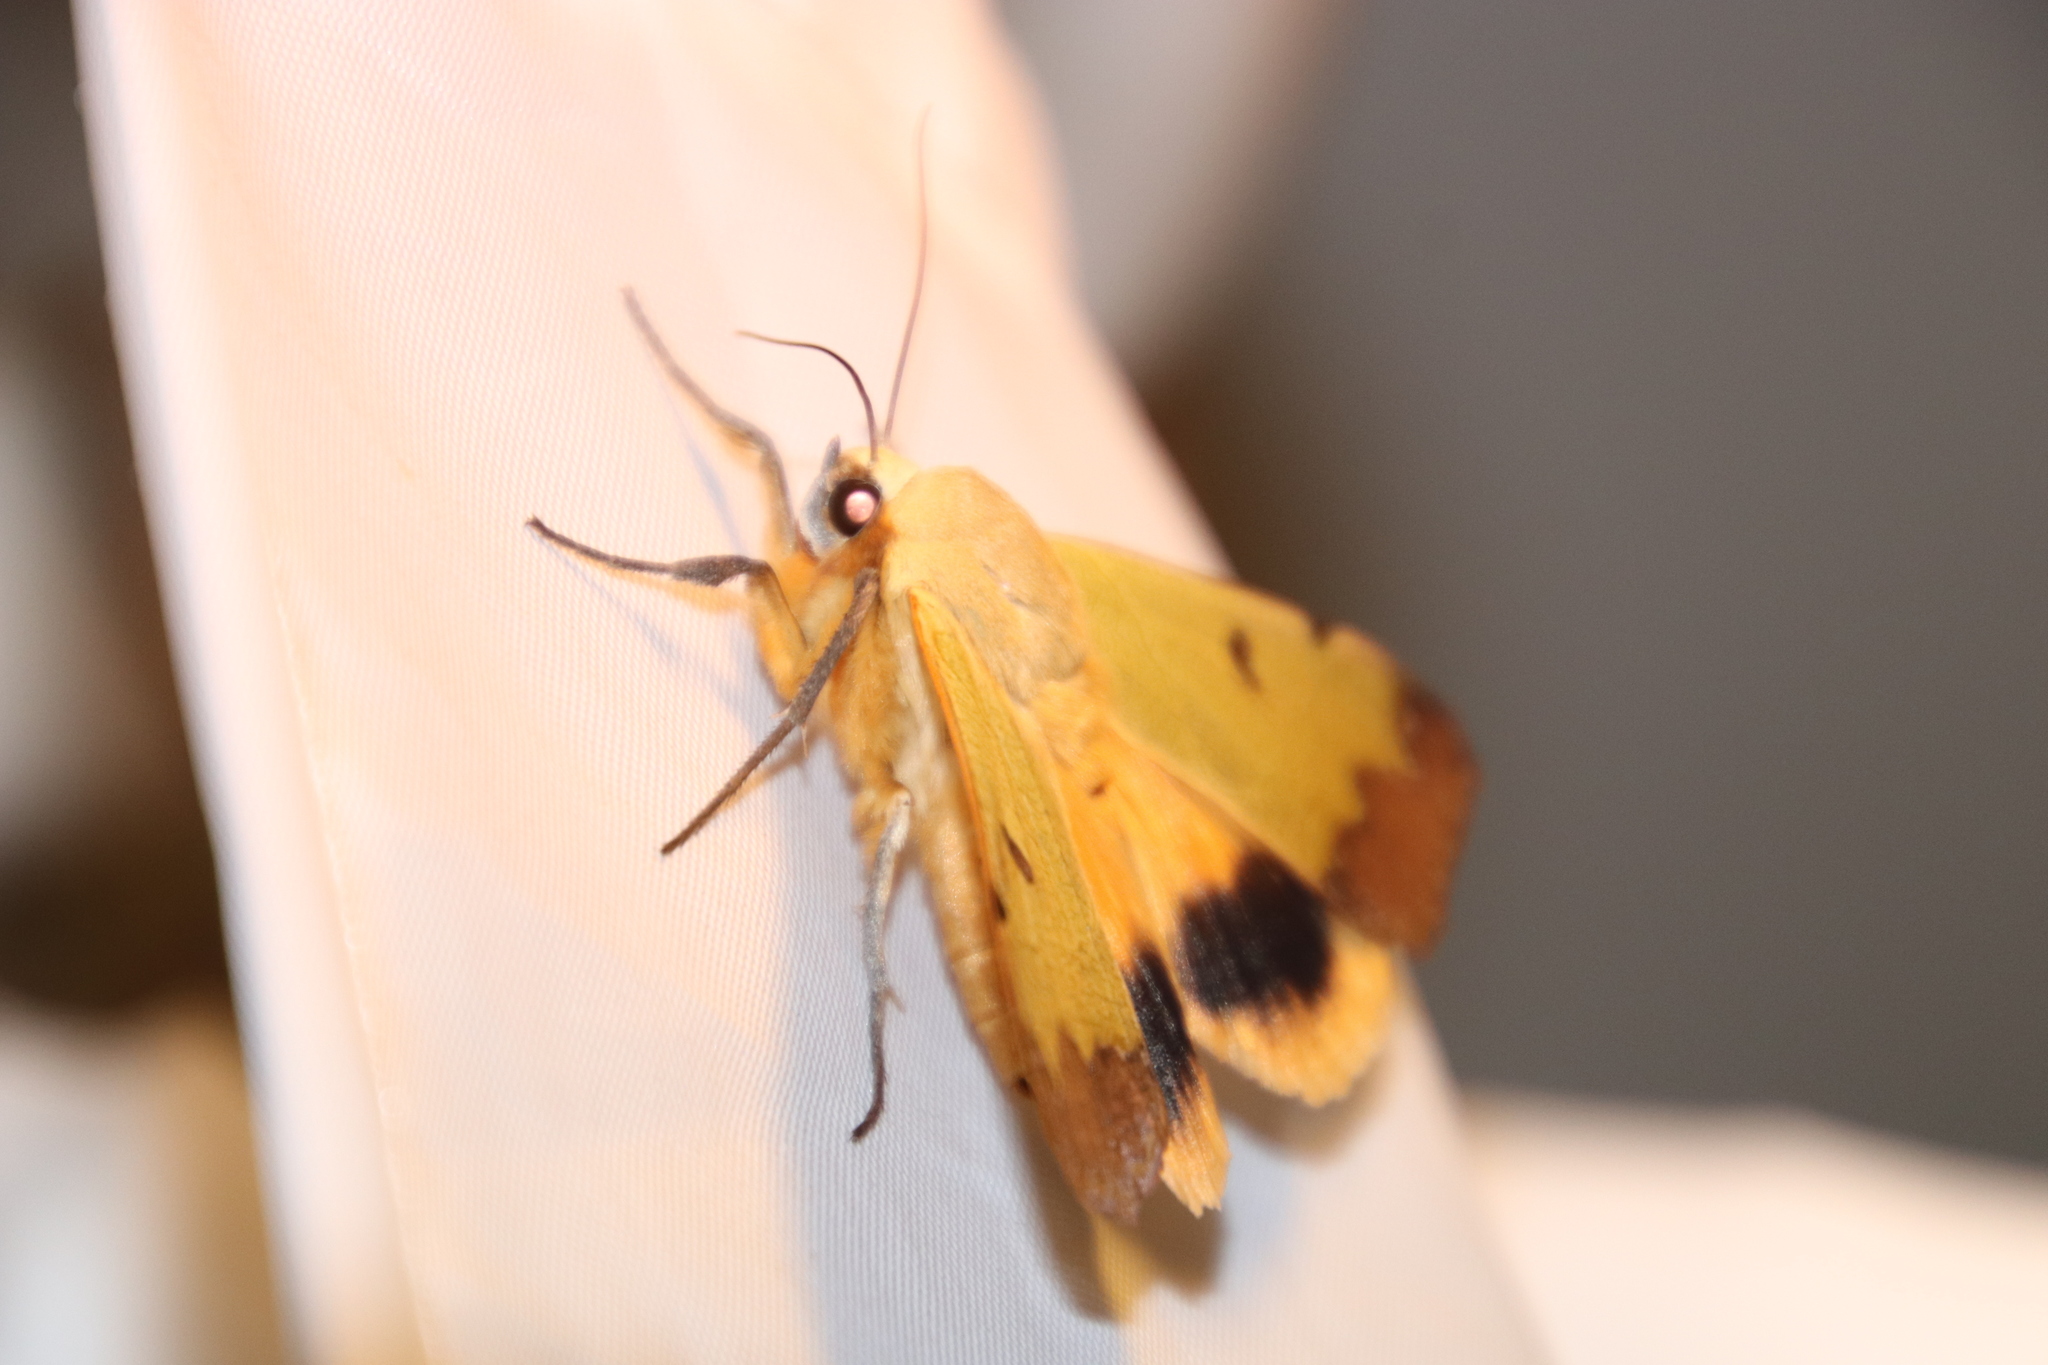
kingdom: Animalia
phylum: Arthropoda
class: Insecta
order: Lepidoptera
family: Erebidae
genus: Ophiusa
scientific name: Ophiusa tirhaca
